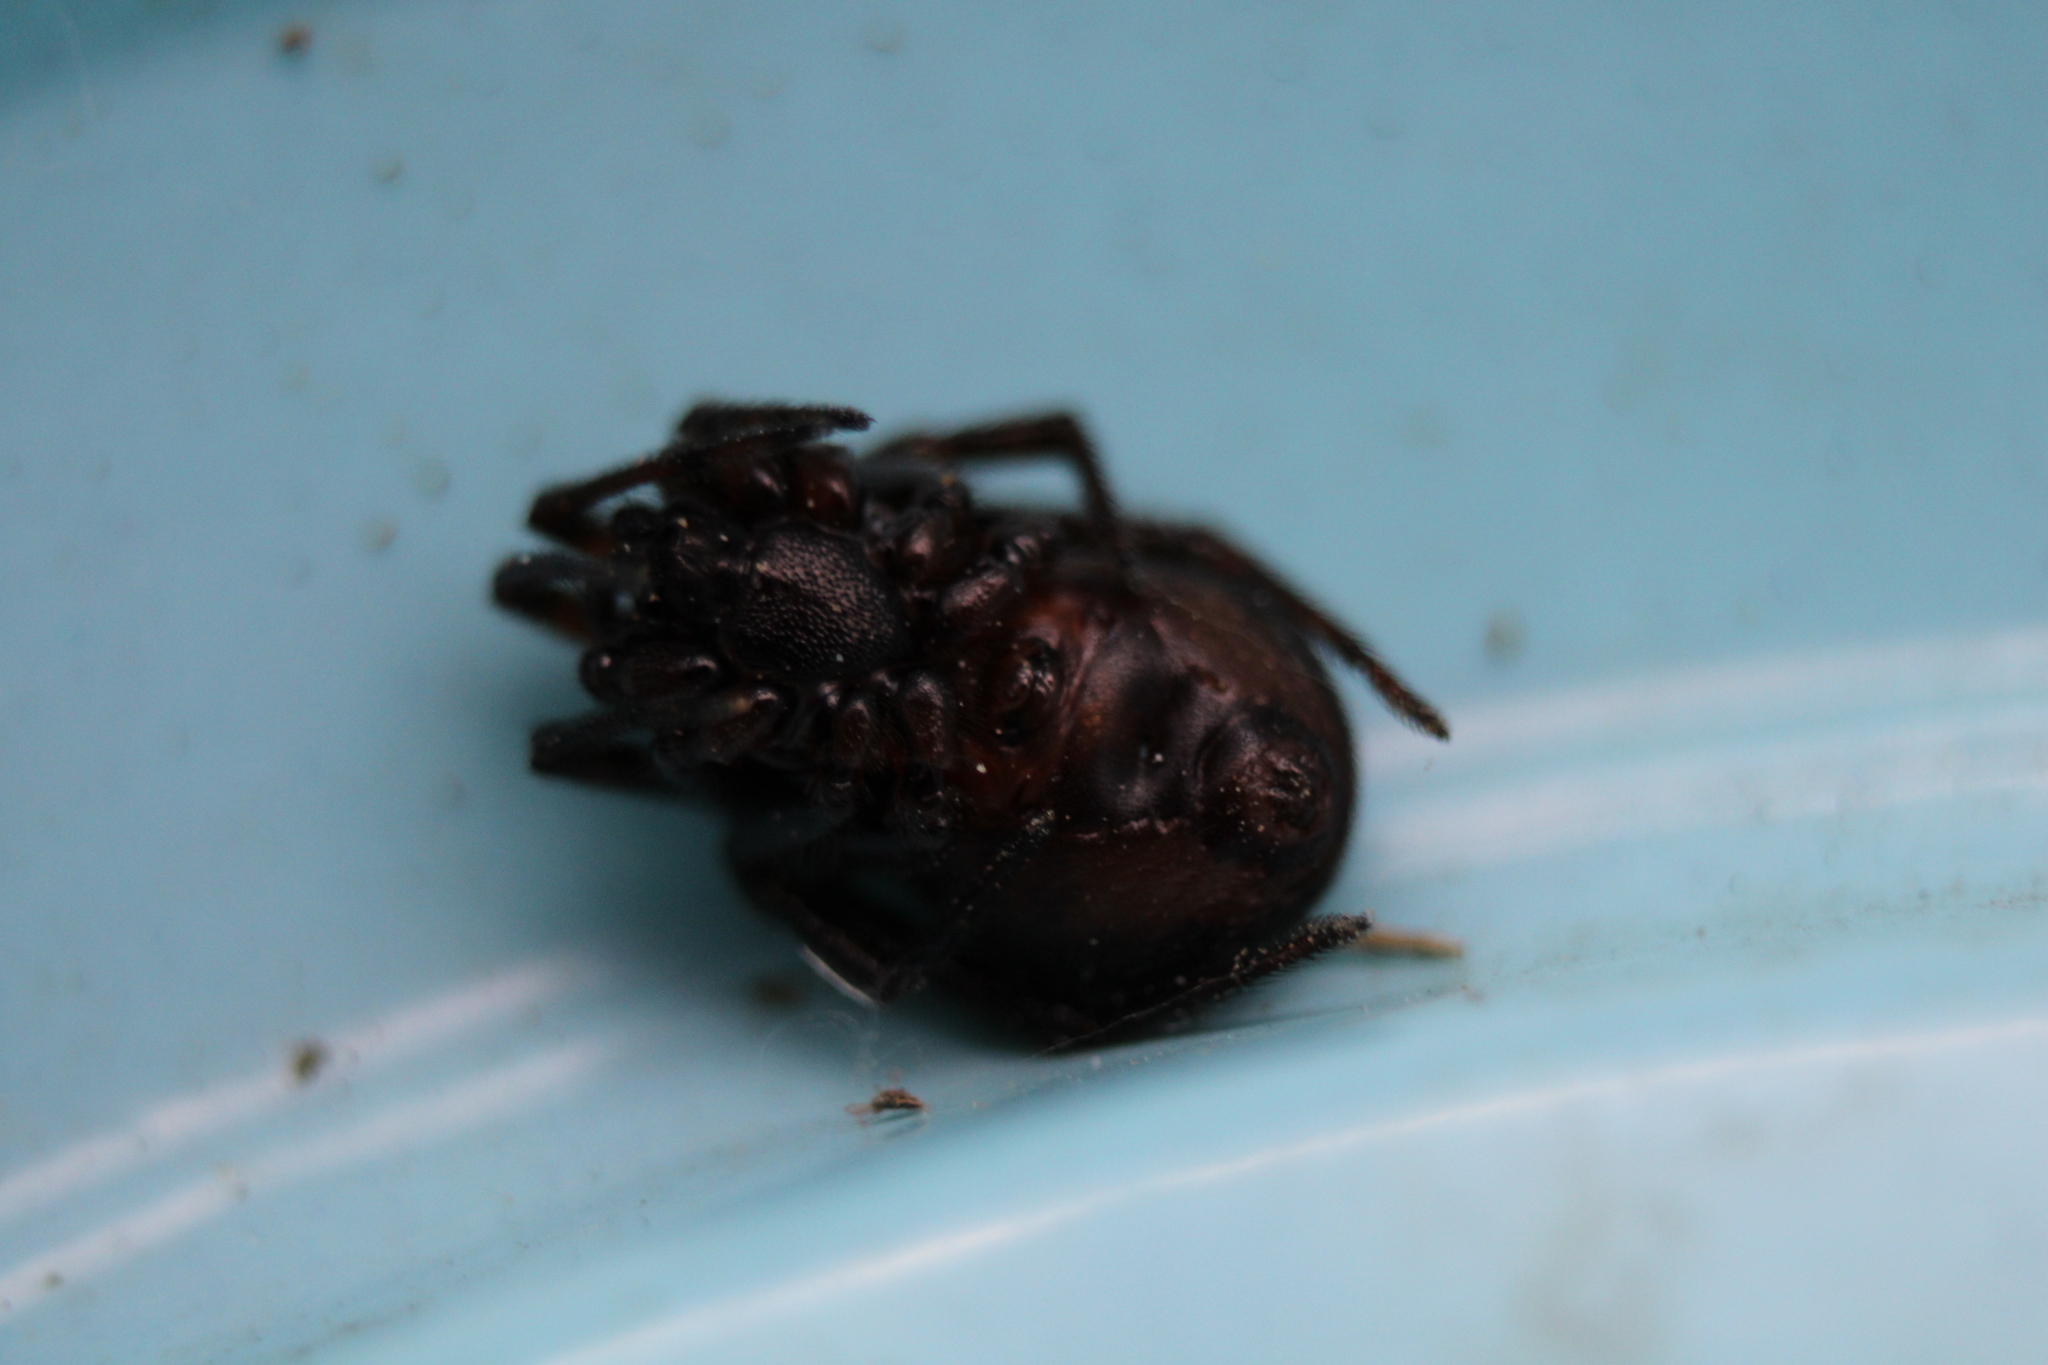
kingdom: Animalia
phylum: Arthropoda
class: Arachnida
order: Araneae
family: Theridiidae
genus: Steatoda
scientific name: Steatoda borealis
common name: Boreal combfoot
